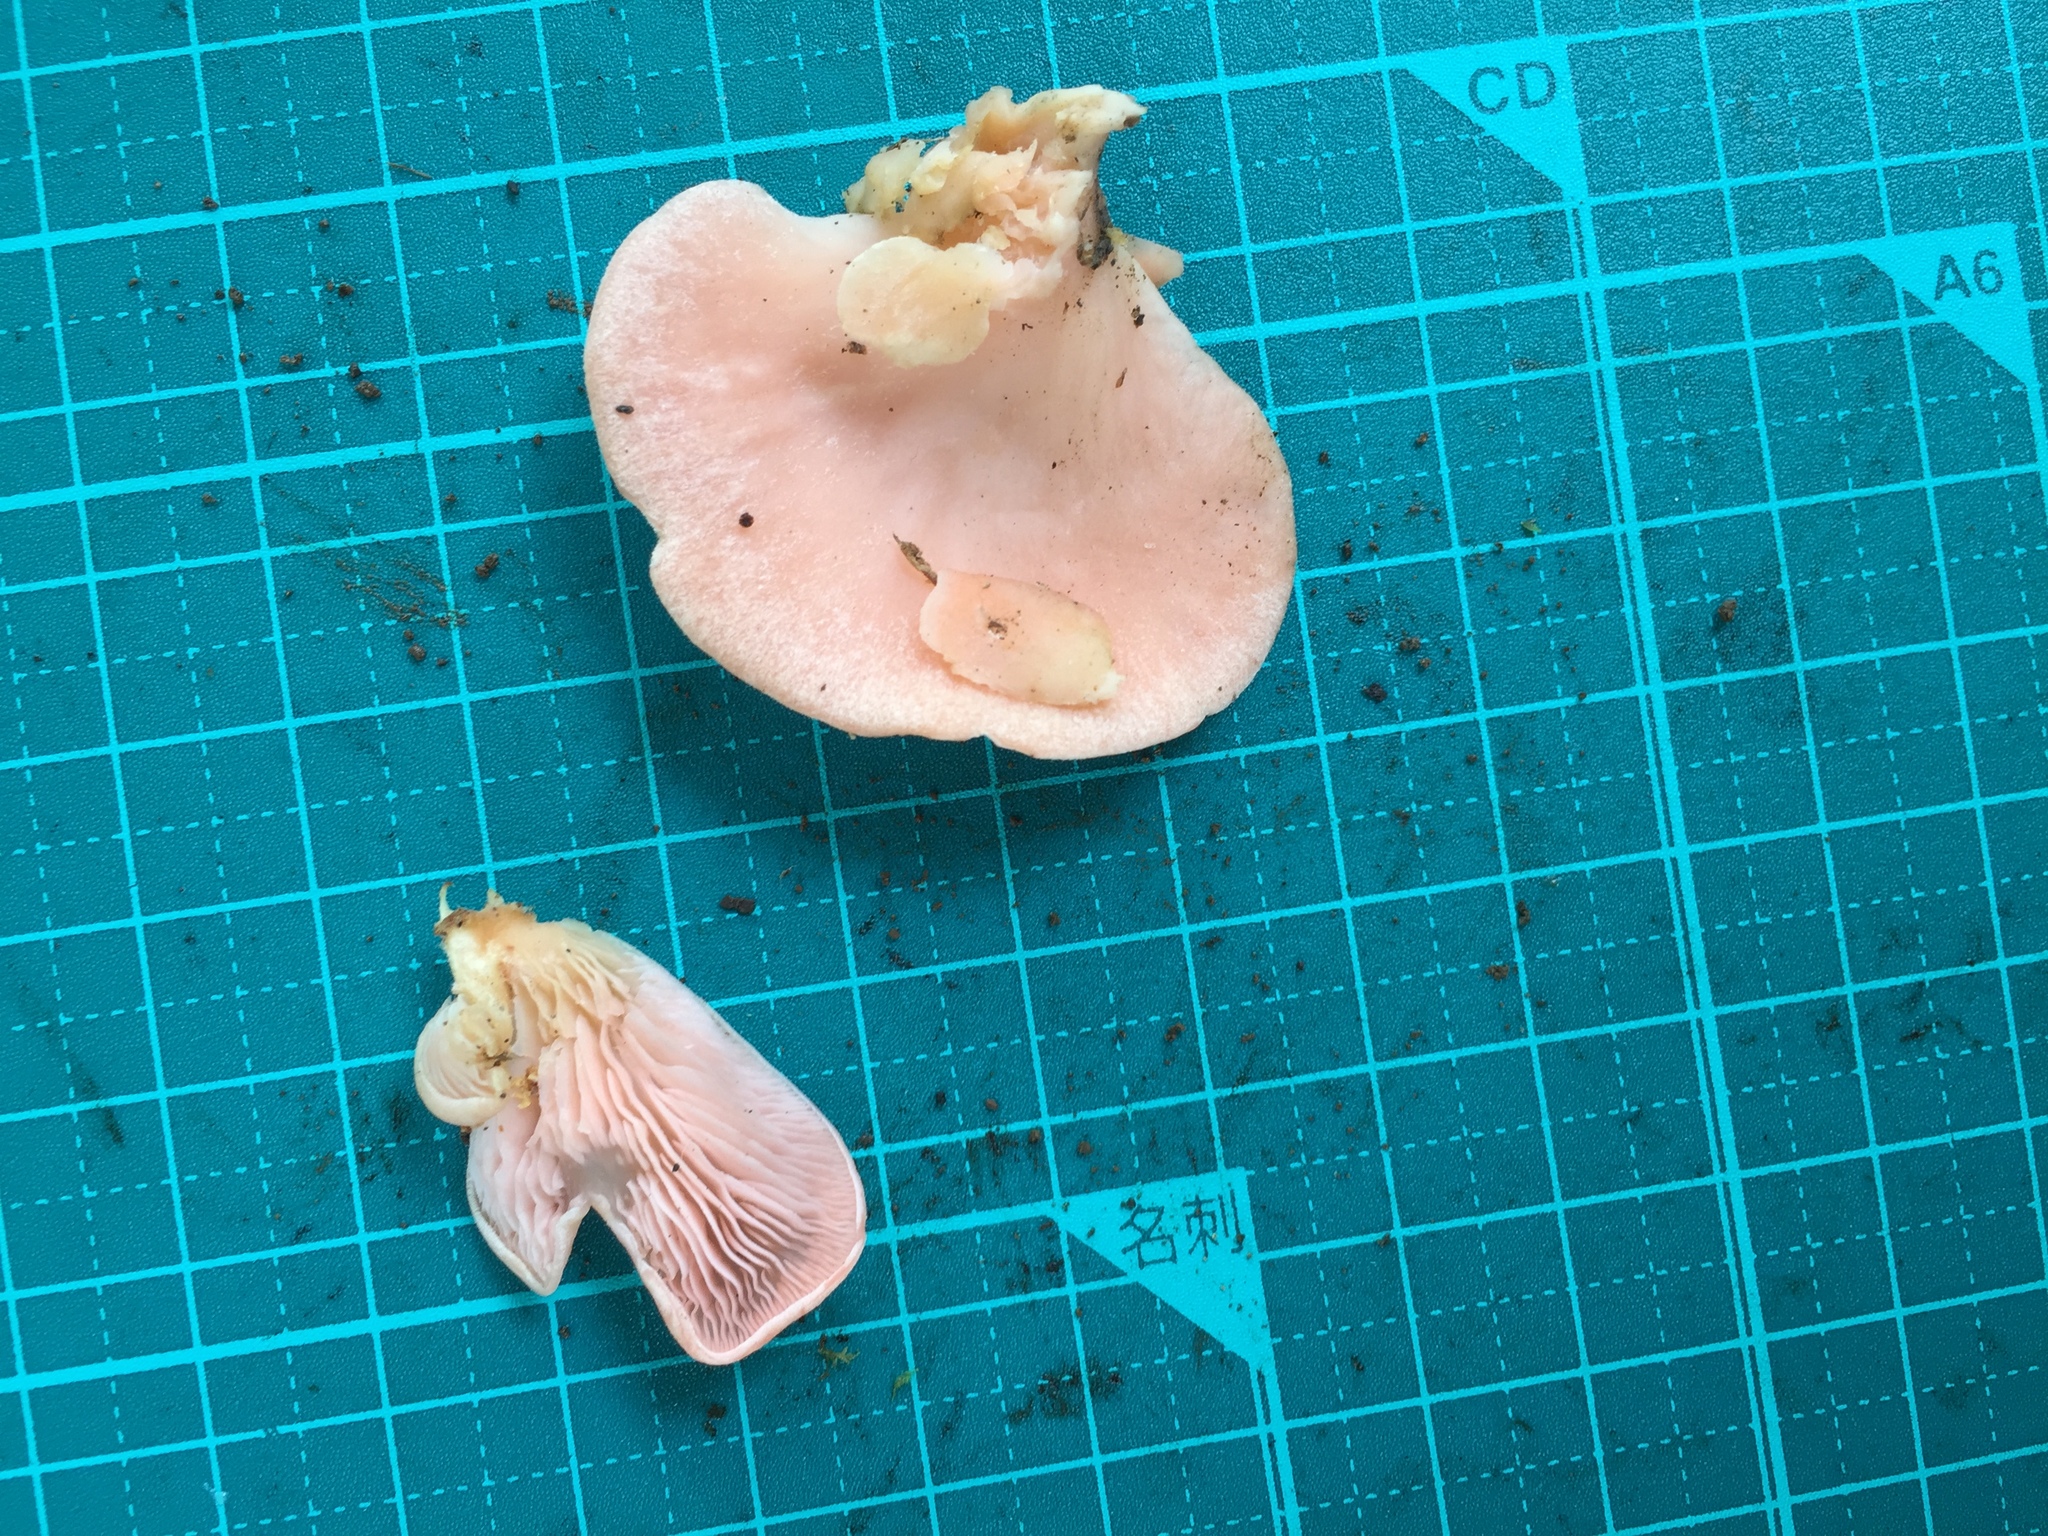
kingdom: Fungi
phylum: Basidiomycota
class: Agaricomycetes
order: Agaricales
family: Pleurotaceae
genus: Pleurotus
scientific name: Pleurotus djamor
